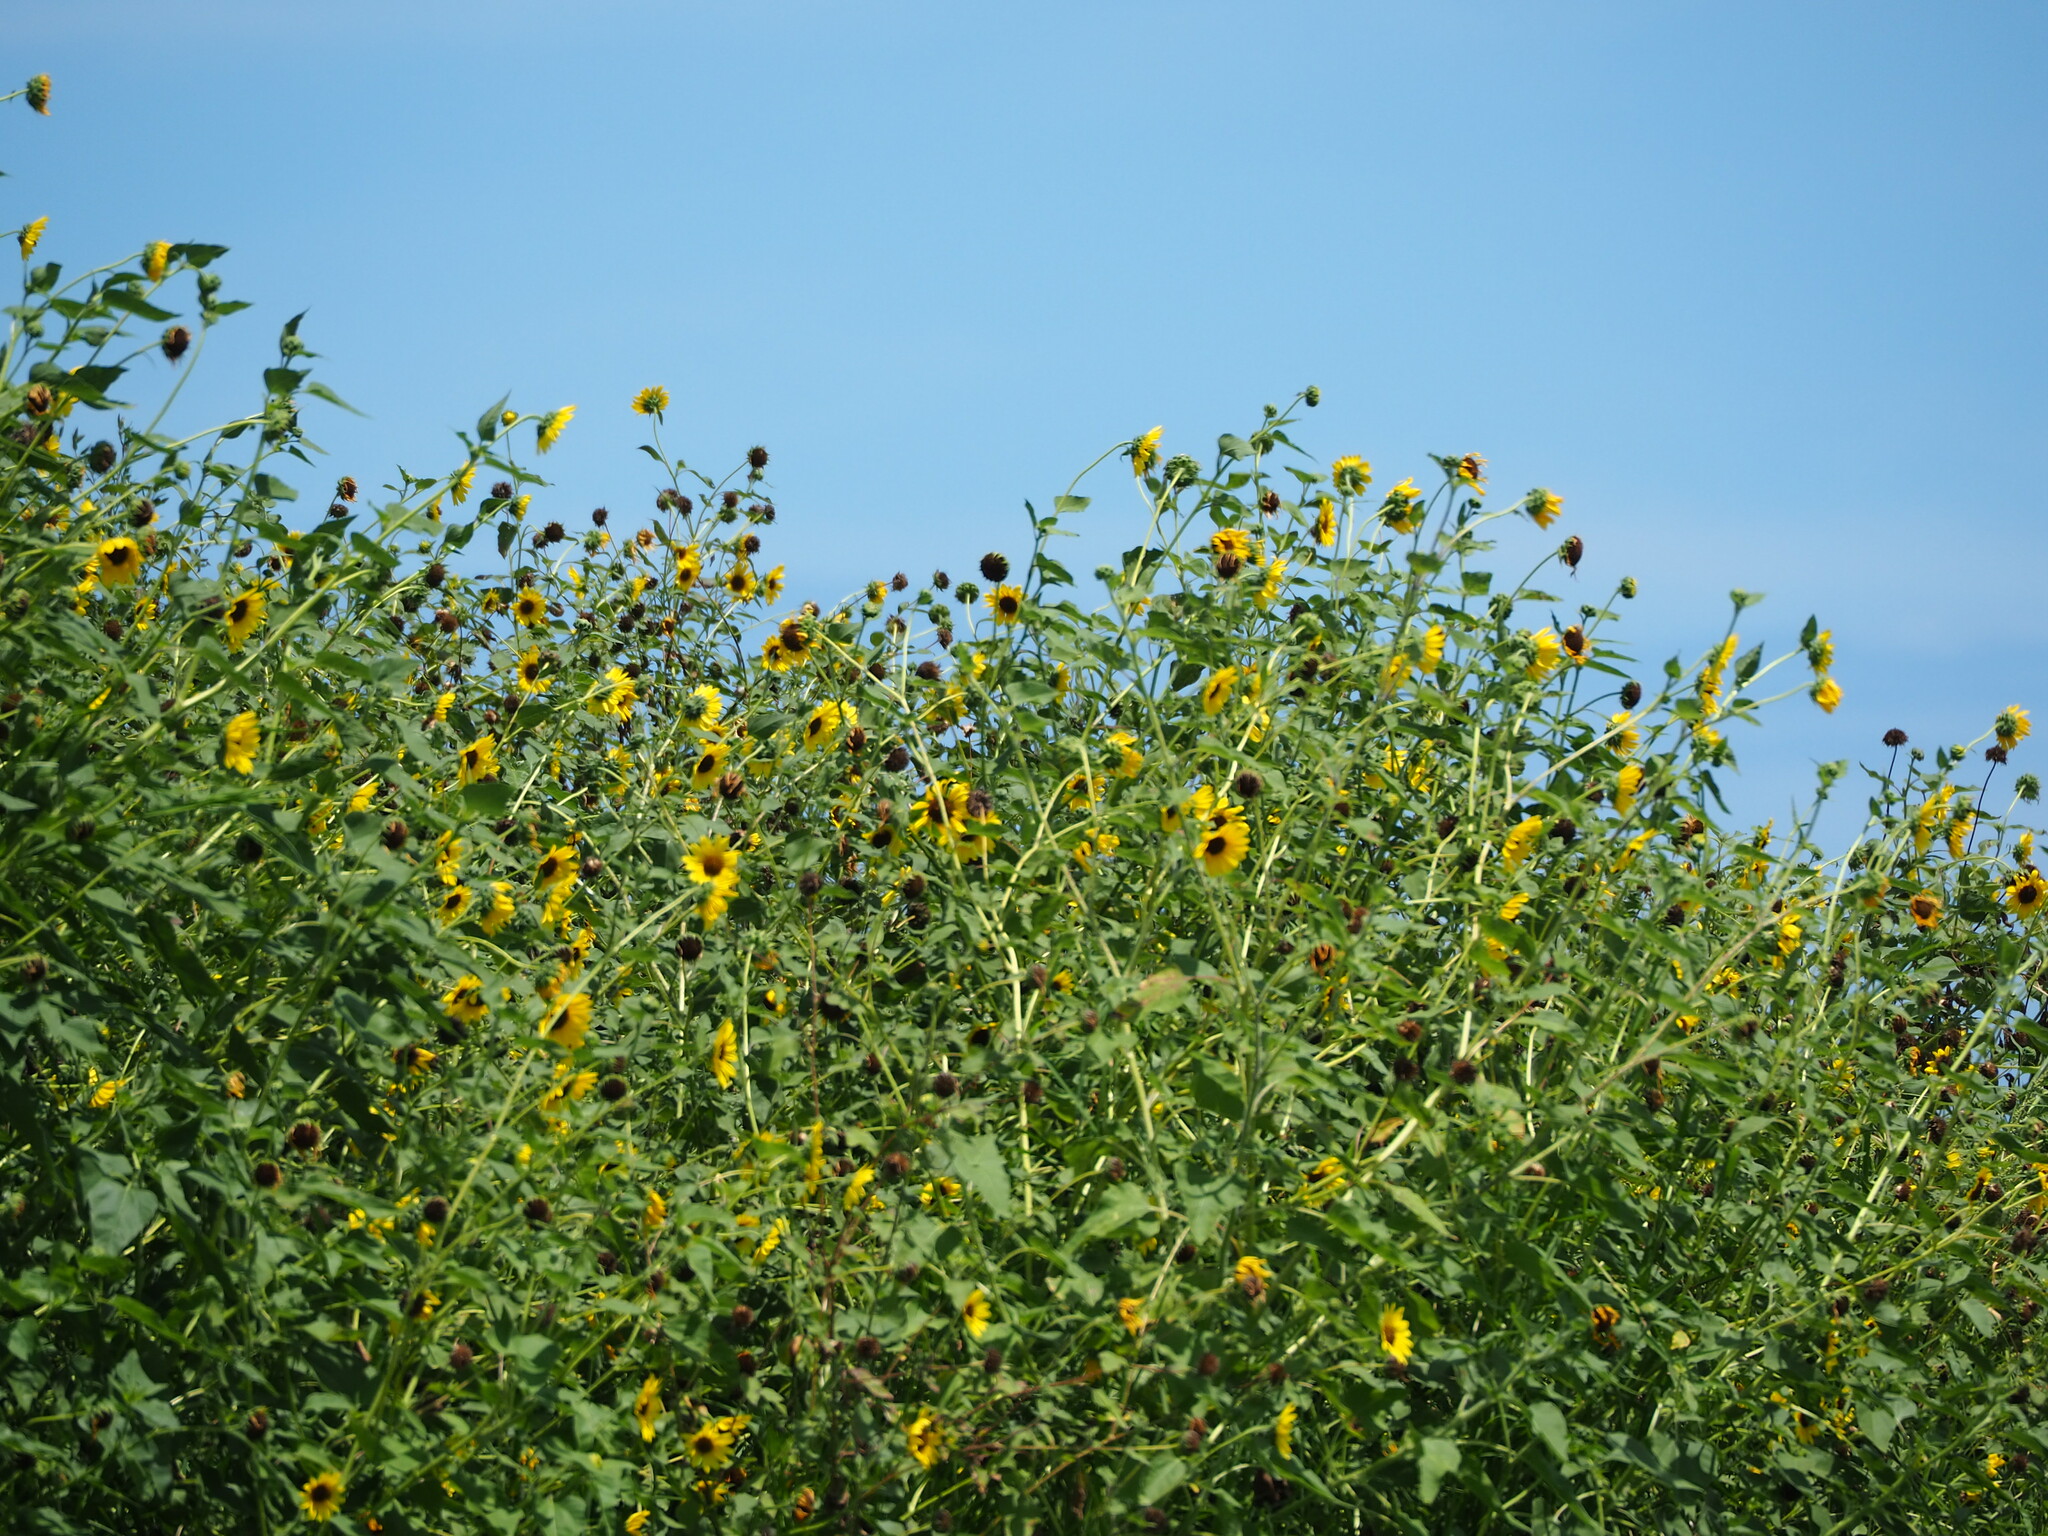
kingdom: Plantae
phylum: Tracheophyta
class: Magnoliopsida
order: Asterales
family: Asteraceae
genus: Helianthus
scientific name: Helianthus debilis
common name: Weak sunflower
